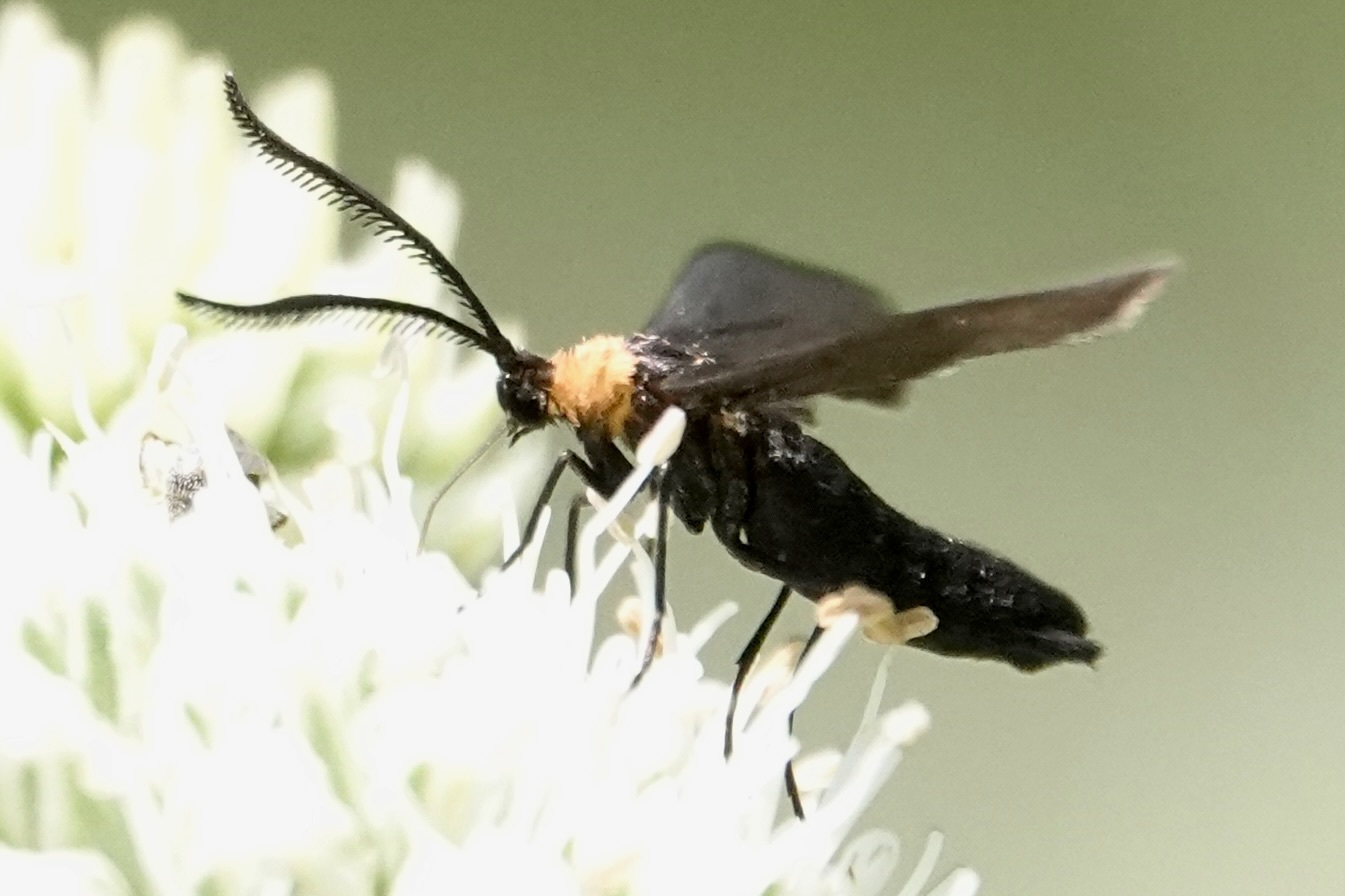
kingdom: Animalia
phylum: Arthropoda
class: Insecta
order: Lepidoptera
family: Zygaenidae
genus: Harrisina
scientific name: Harrisina americana
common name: Grapeleaf skeletonizer moth
